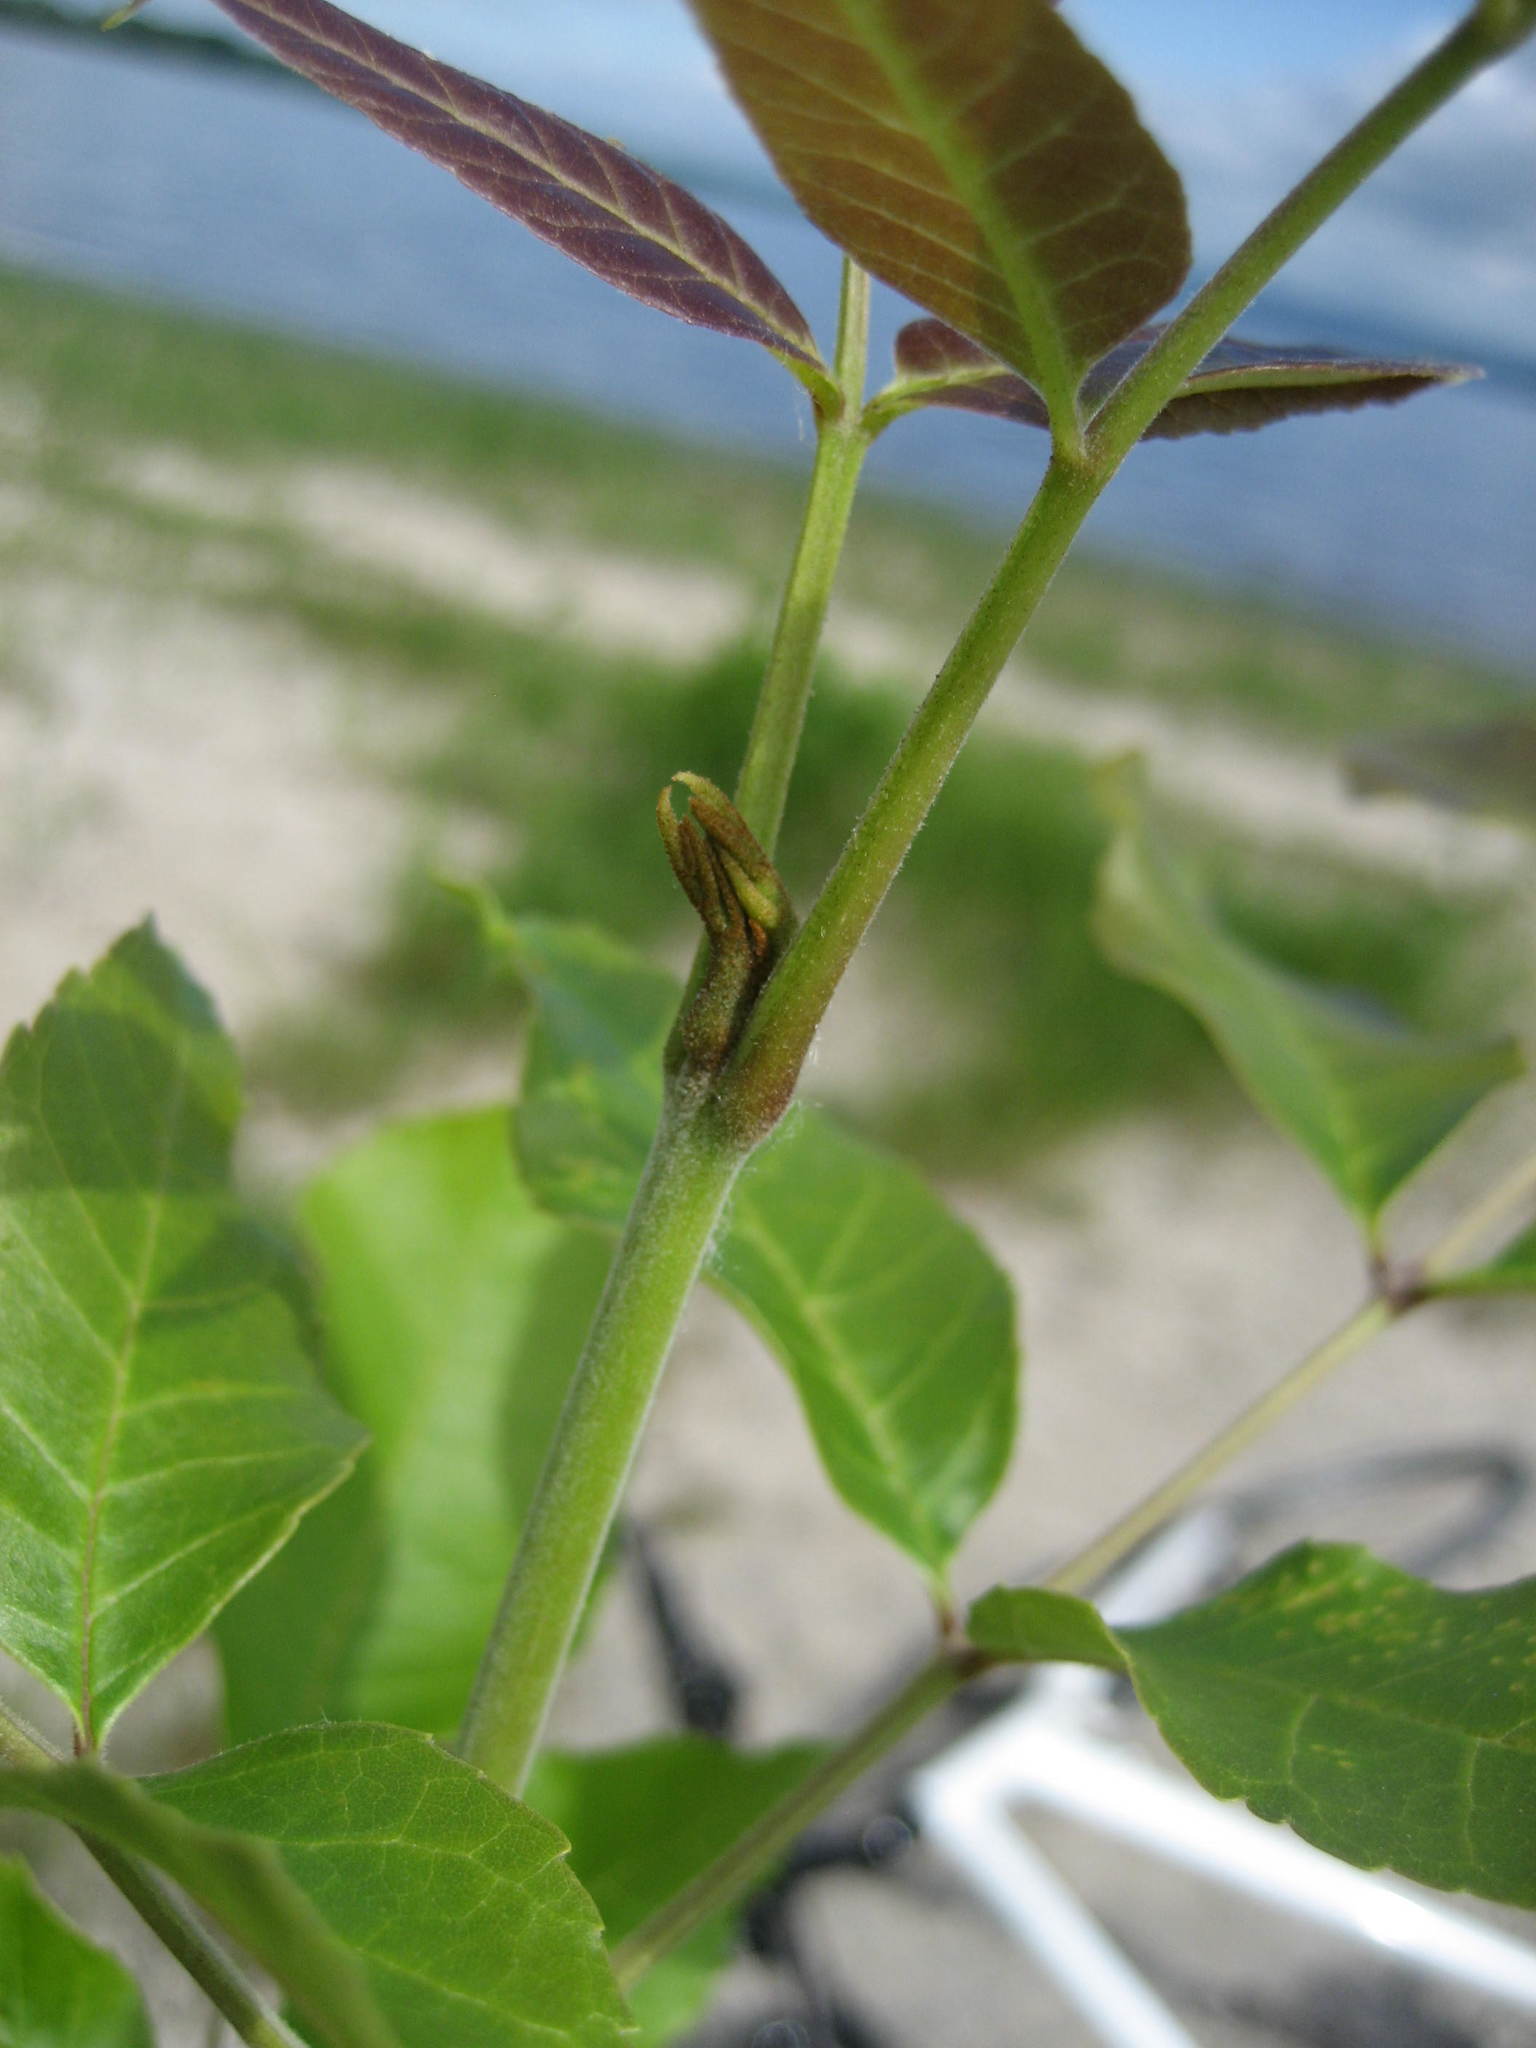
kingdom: Plantae
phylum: Tracheophyta
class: Magnoliopsida
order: Lamiales
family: Oleaceae
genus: Fraxinus
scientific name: Fraxinus pennsylvanica
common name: Green ash
